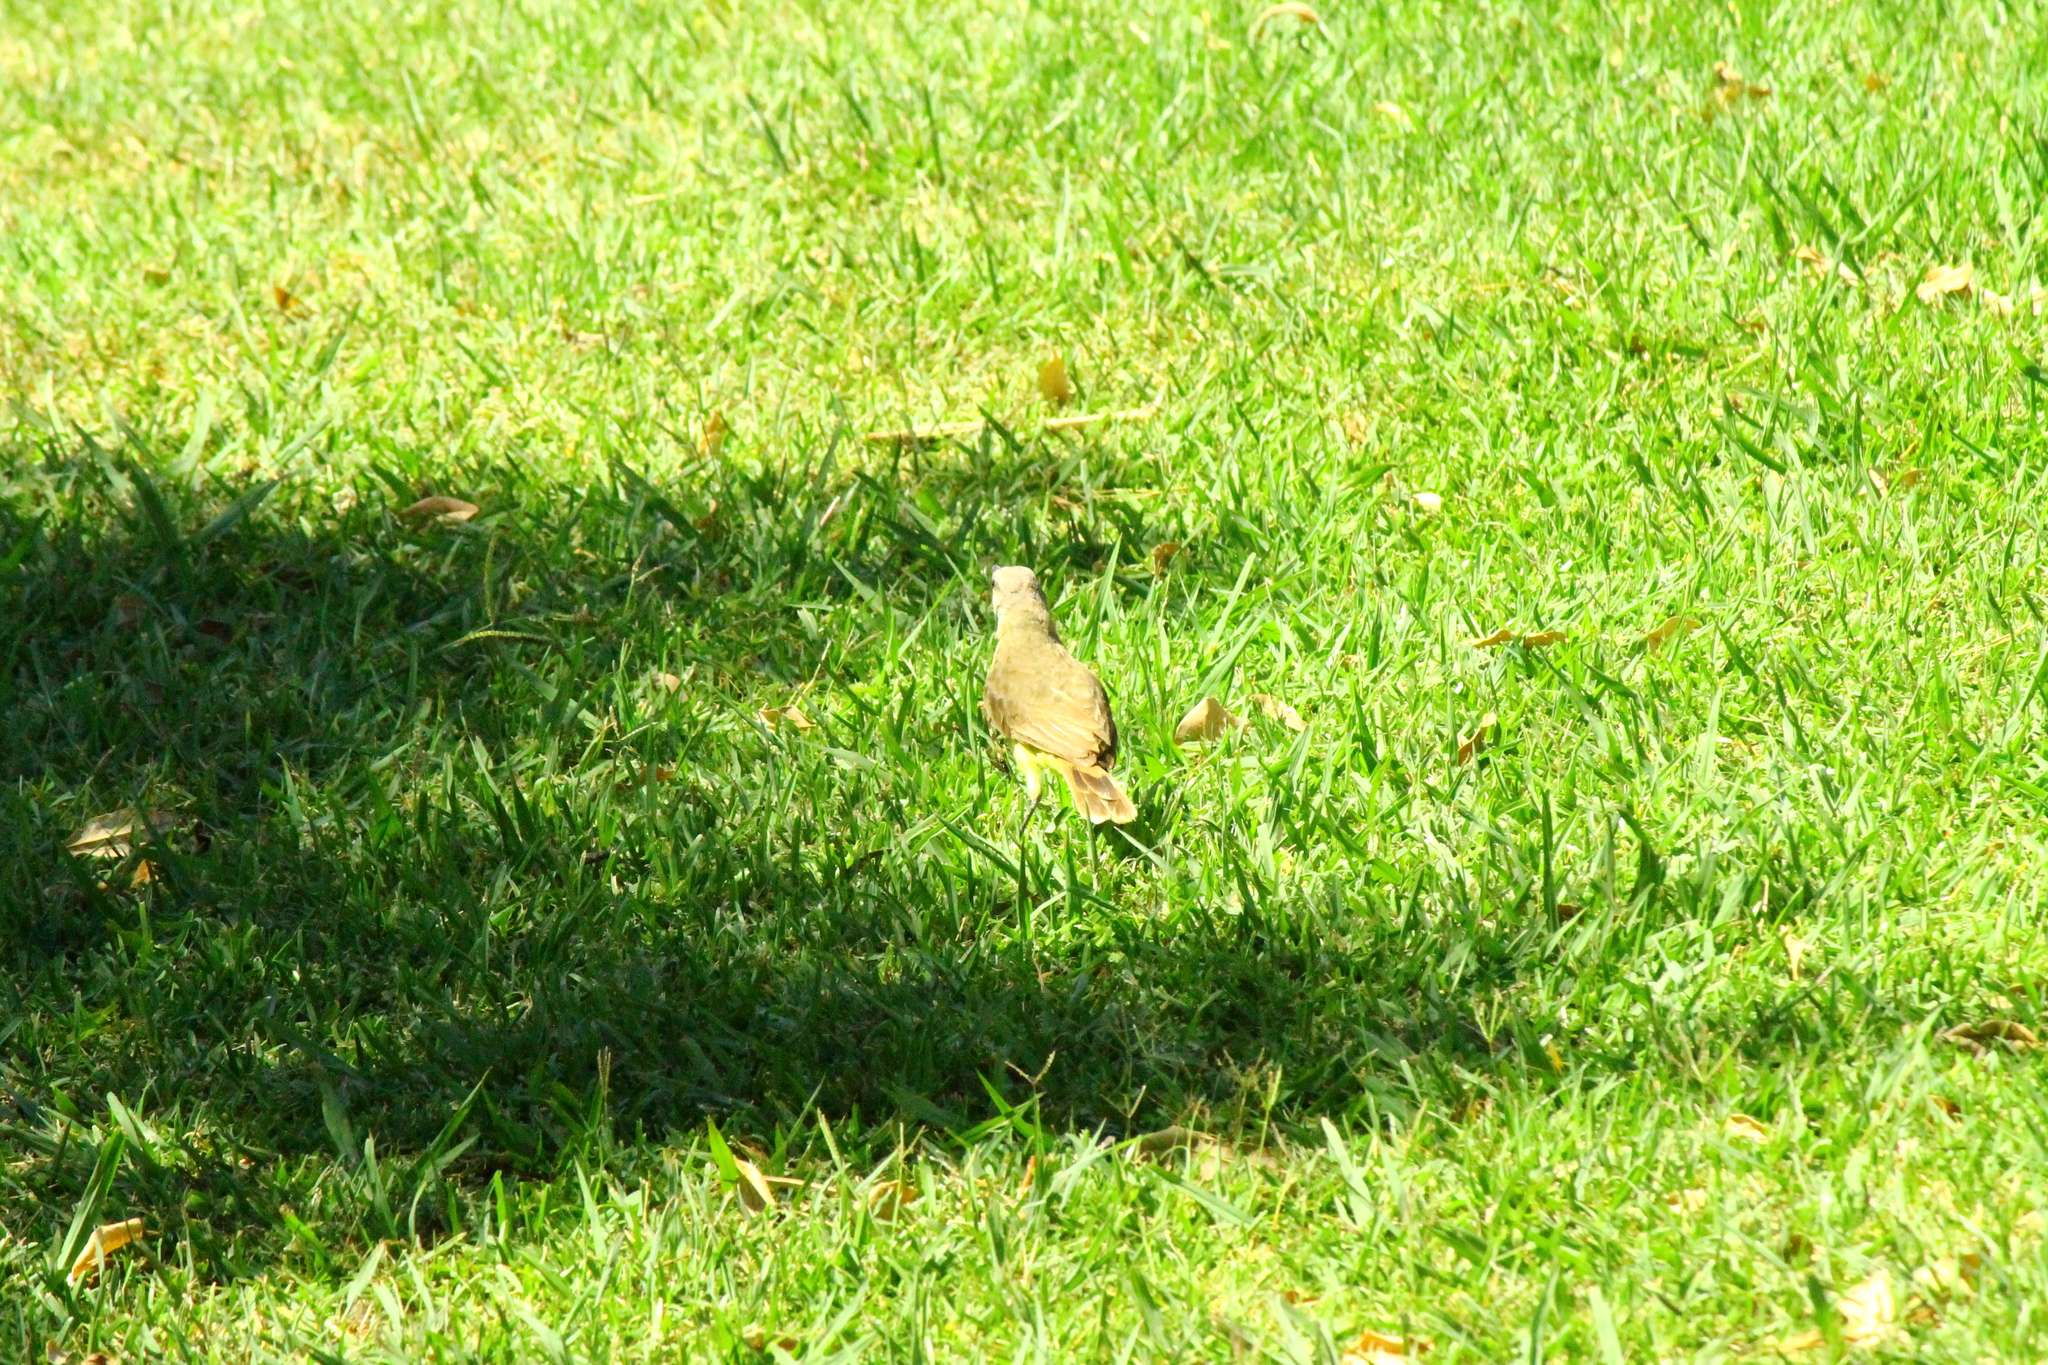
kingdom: Animalia
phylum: Chordata
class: Aves
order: Passeriformes
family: Tyrannidae
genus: Machetornis
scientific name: Machetornis rixosa
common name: Cattle tyrant
